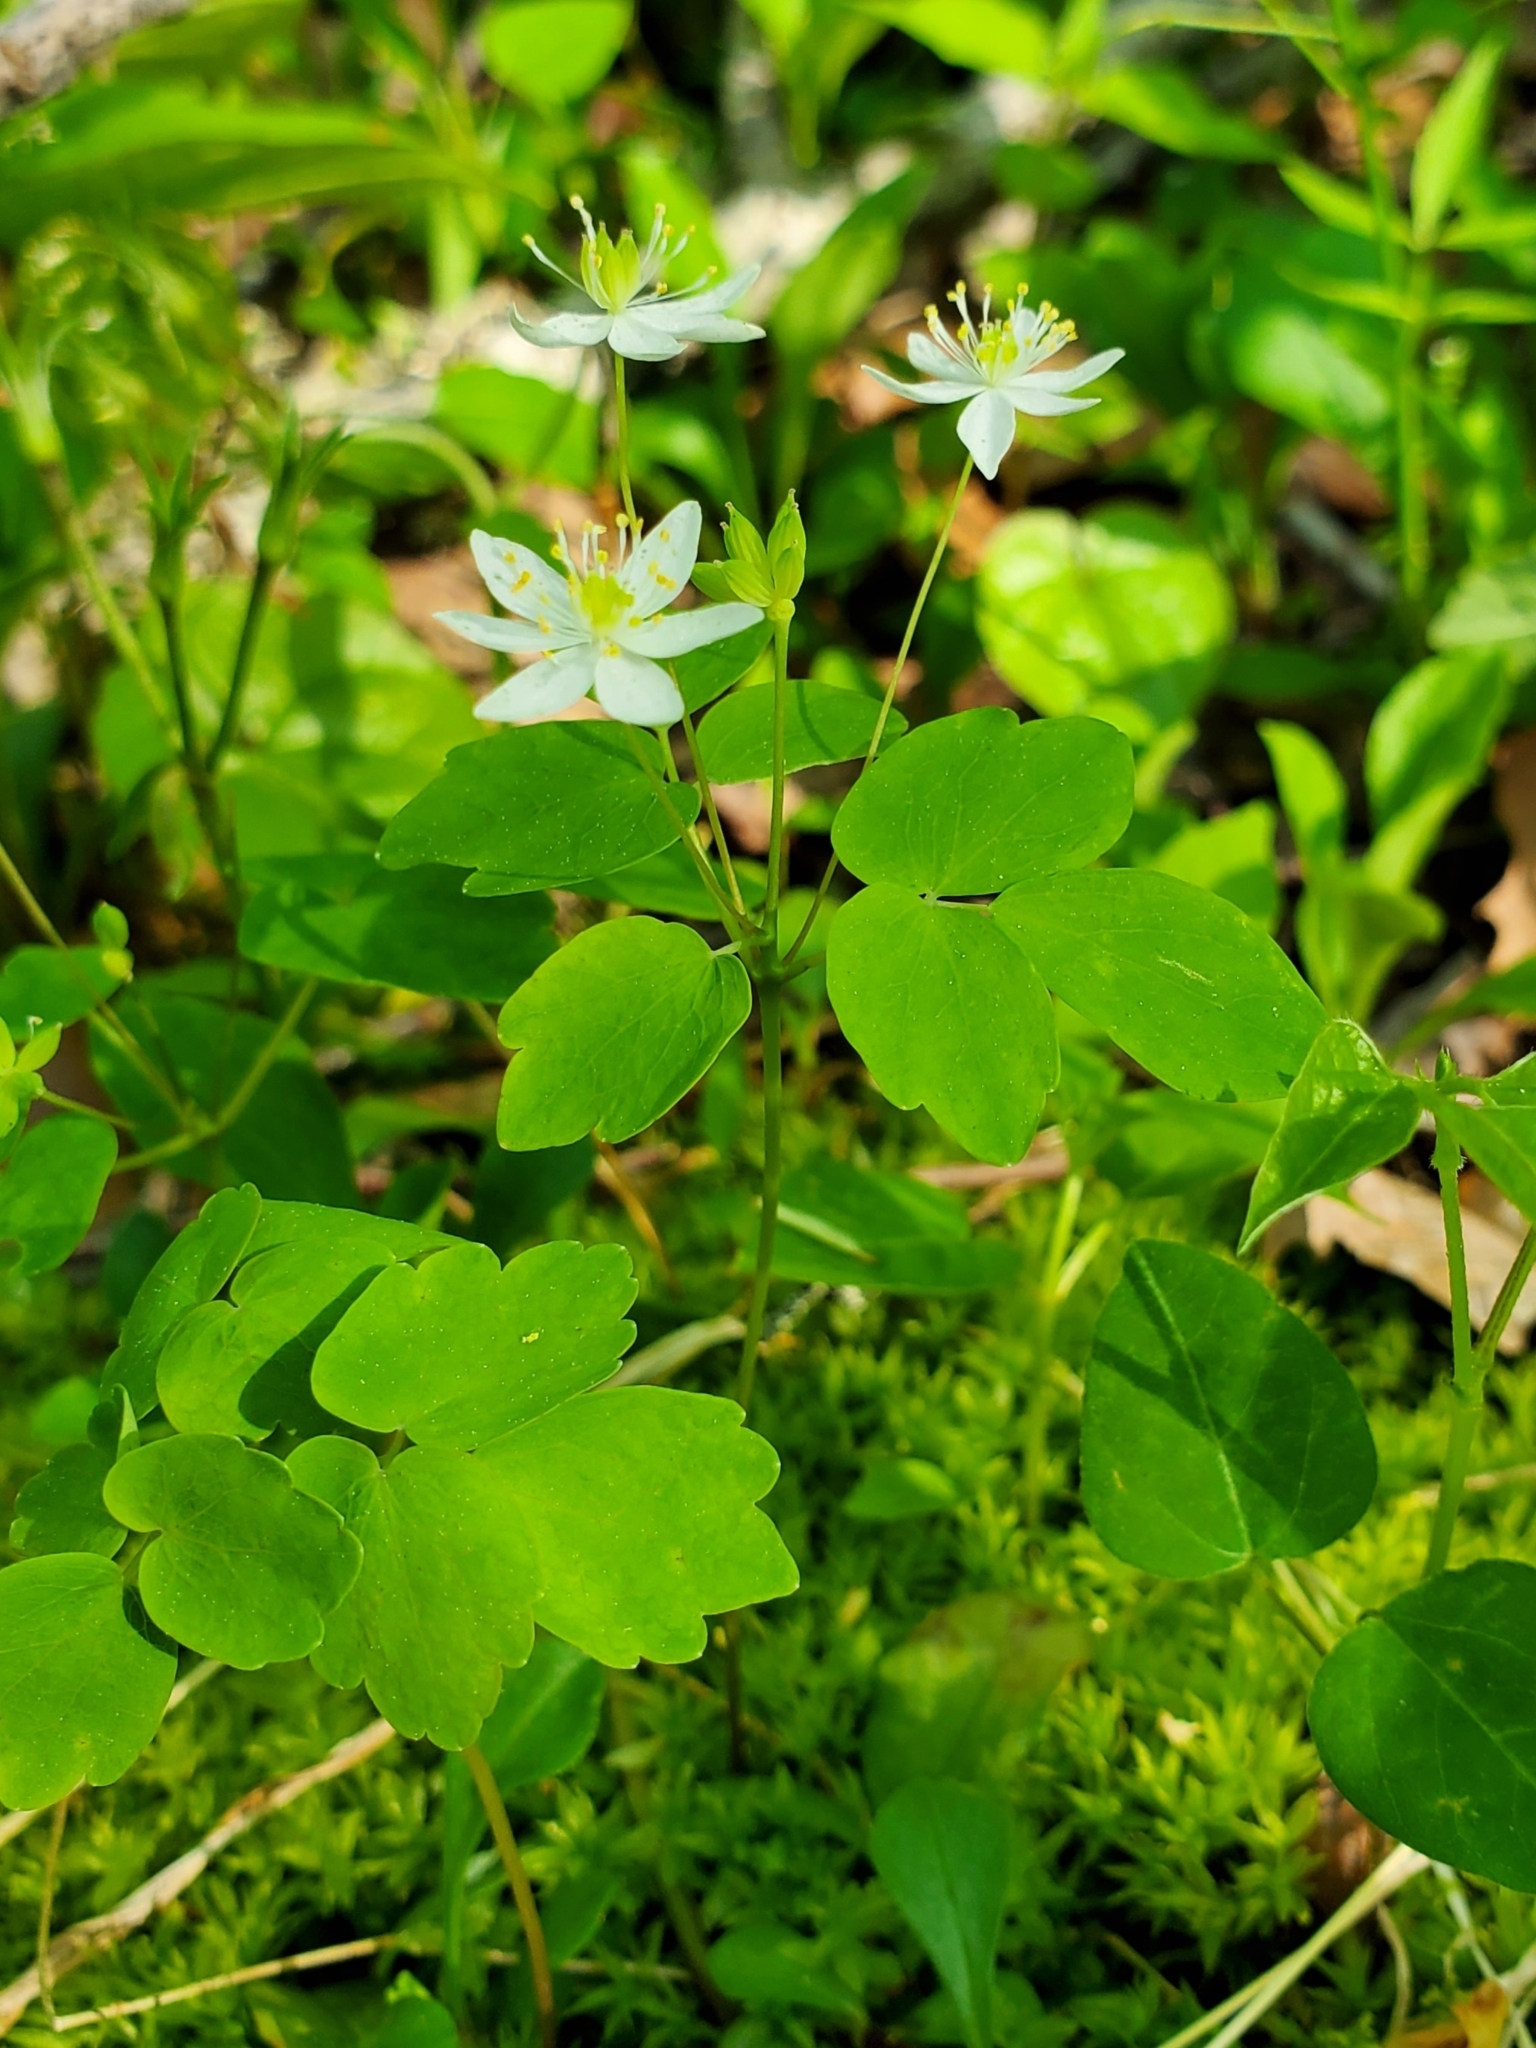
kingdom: Plantae
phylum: Tracheophyta
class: Magnoliopsida
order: Ranunculales
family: Ranunculaceae
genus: Thalictrum
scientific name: Thalictrum thalictroides
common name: Rue-anemone
